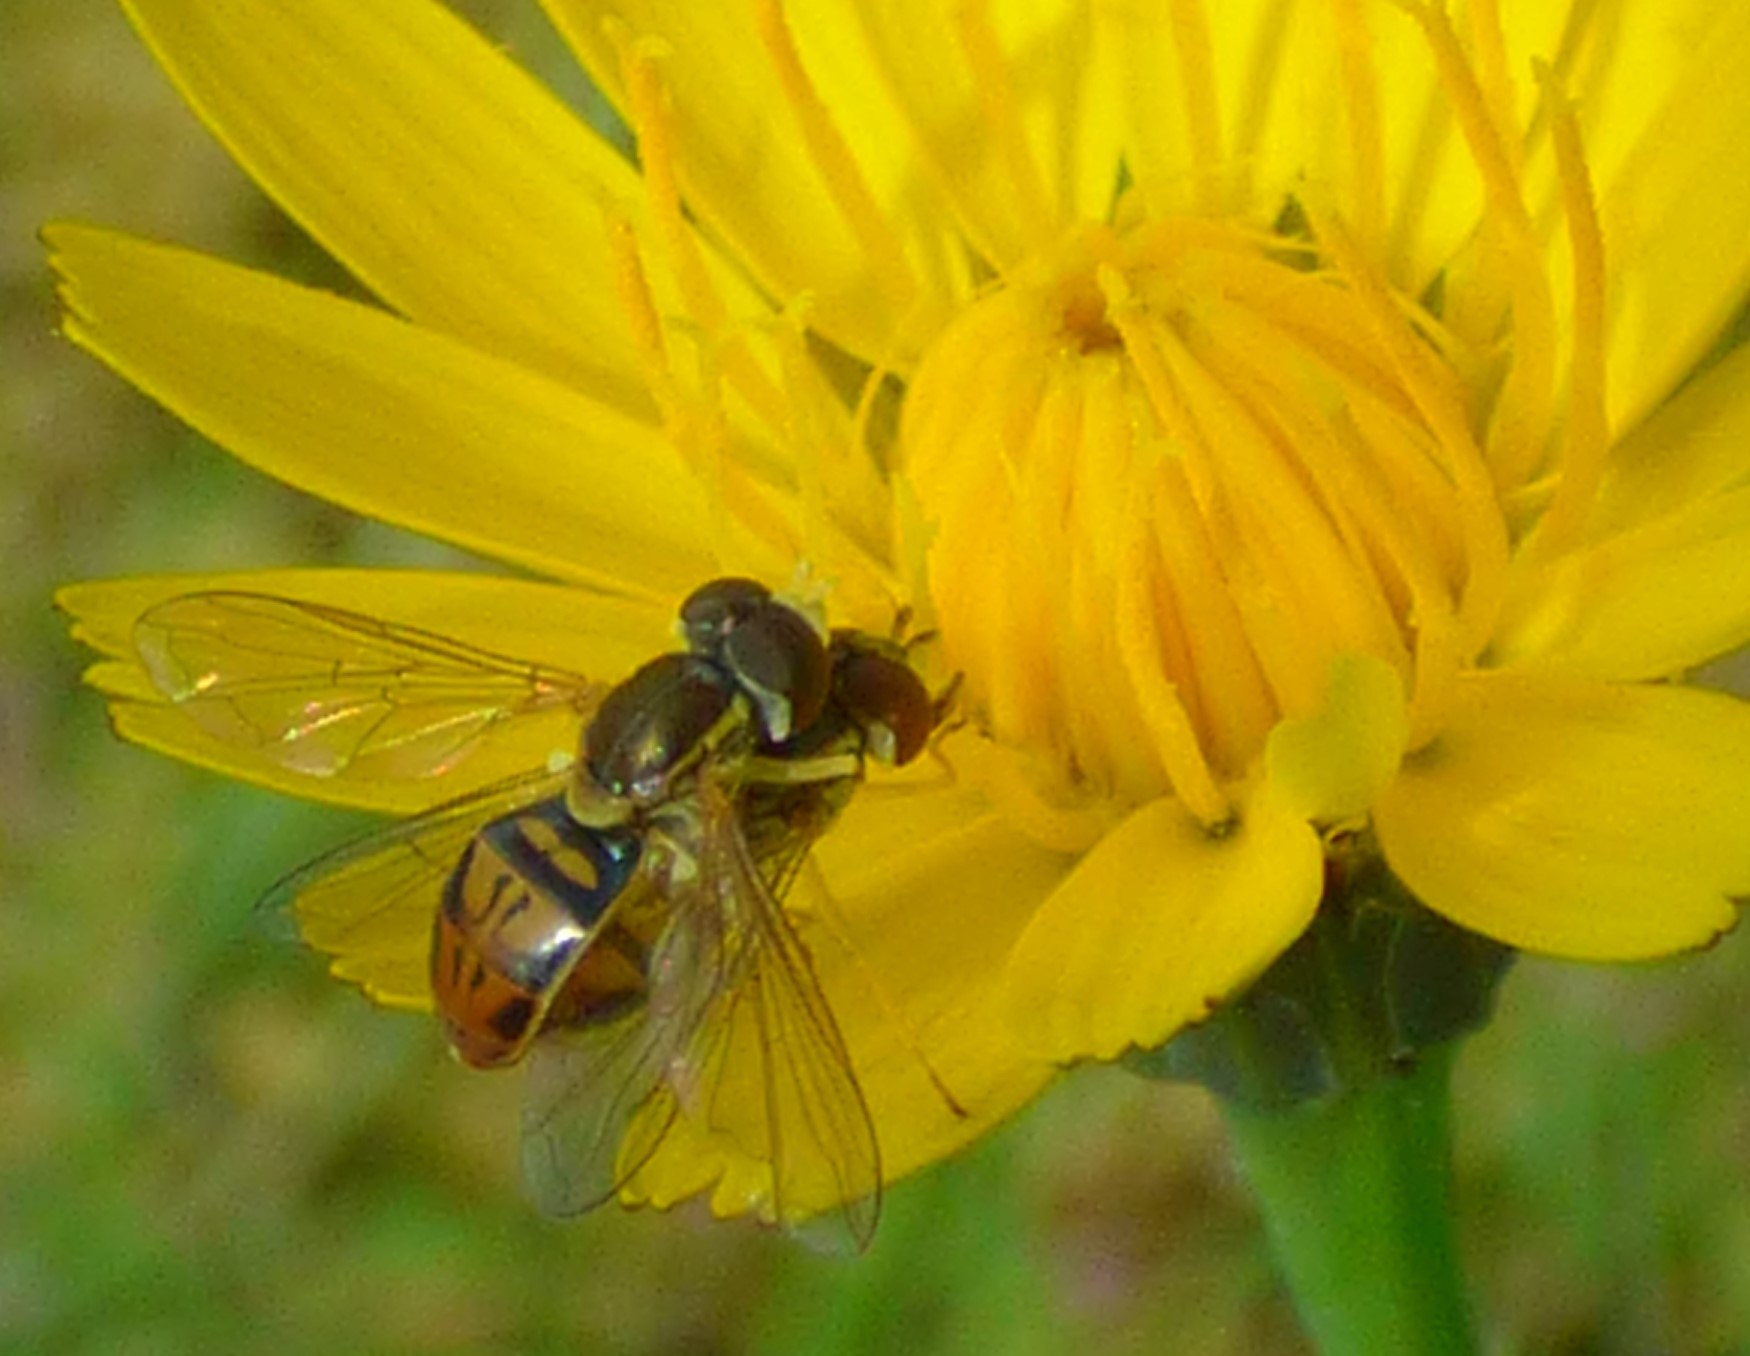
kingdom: Animalia
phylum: Arthropoda
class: Insecta
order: Diptera
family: Syrphidae
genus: Toxomerus
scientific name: Toxomerus marginatus
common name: Syrphid fly
